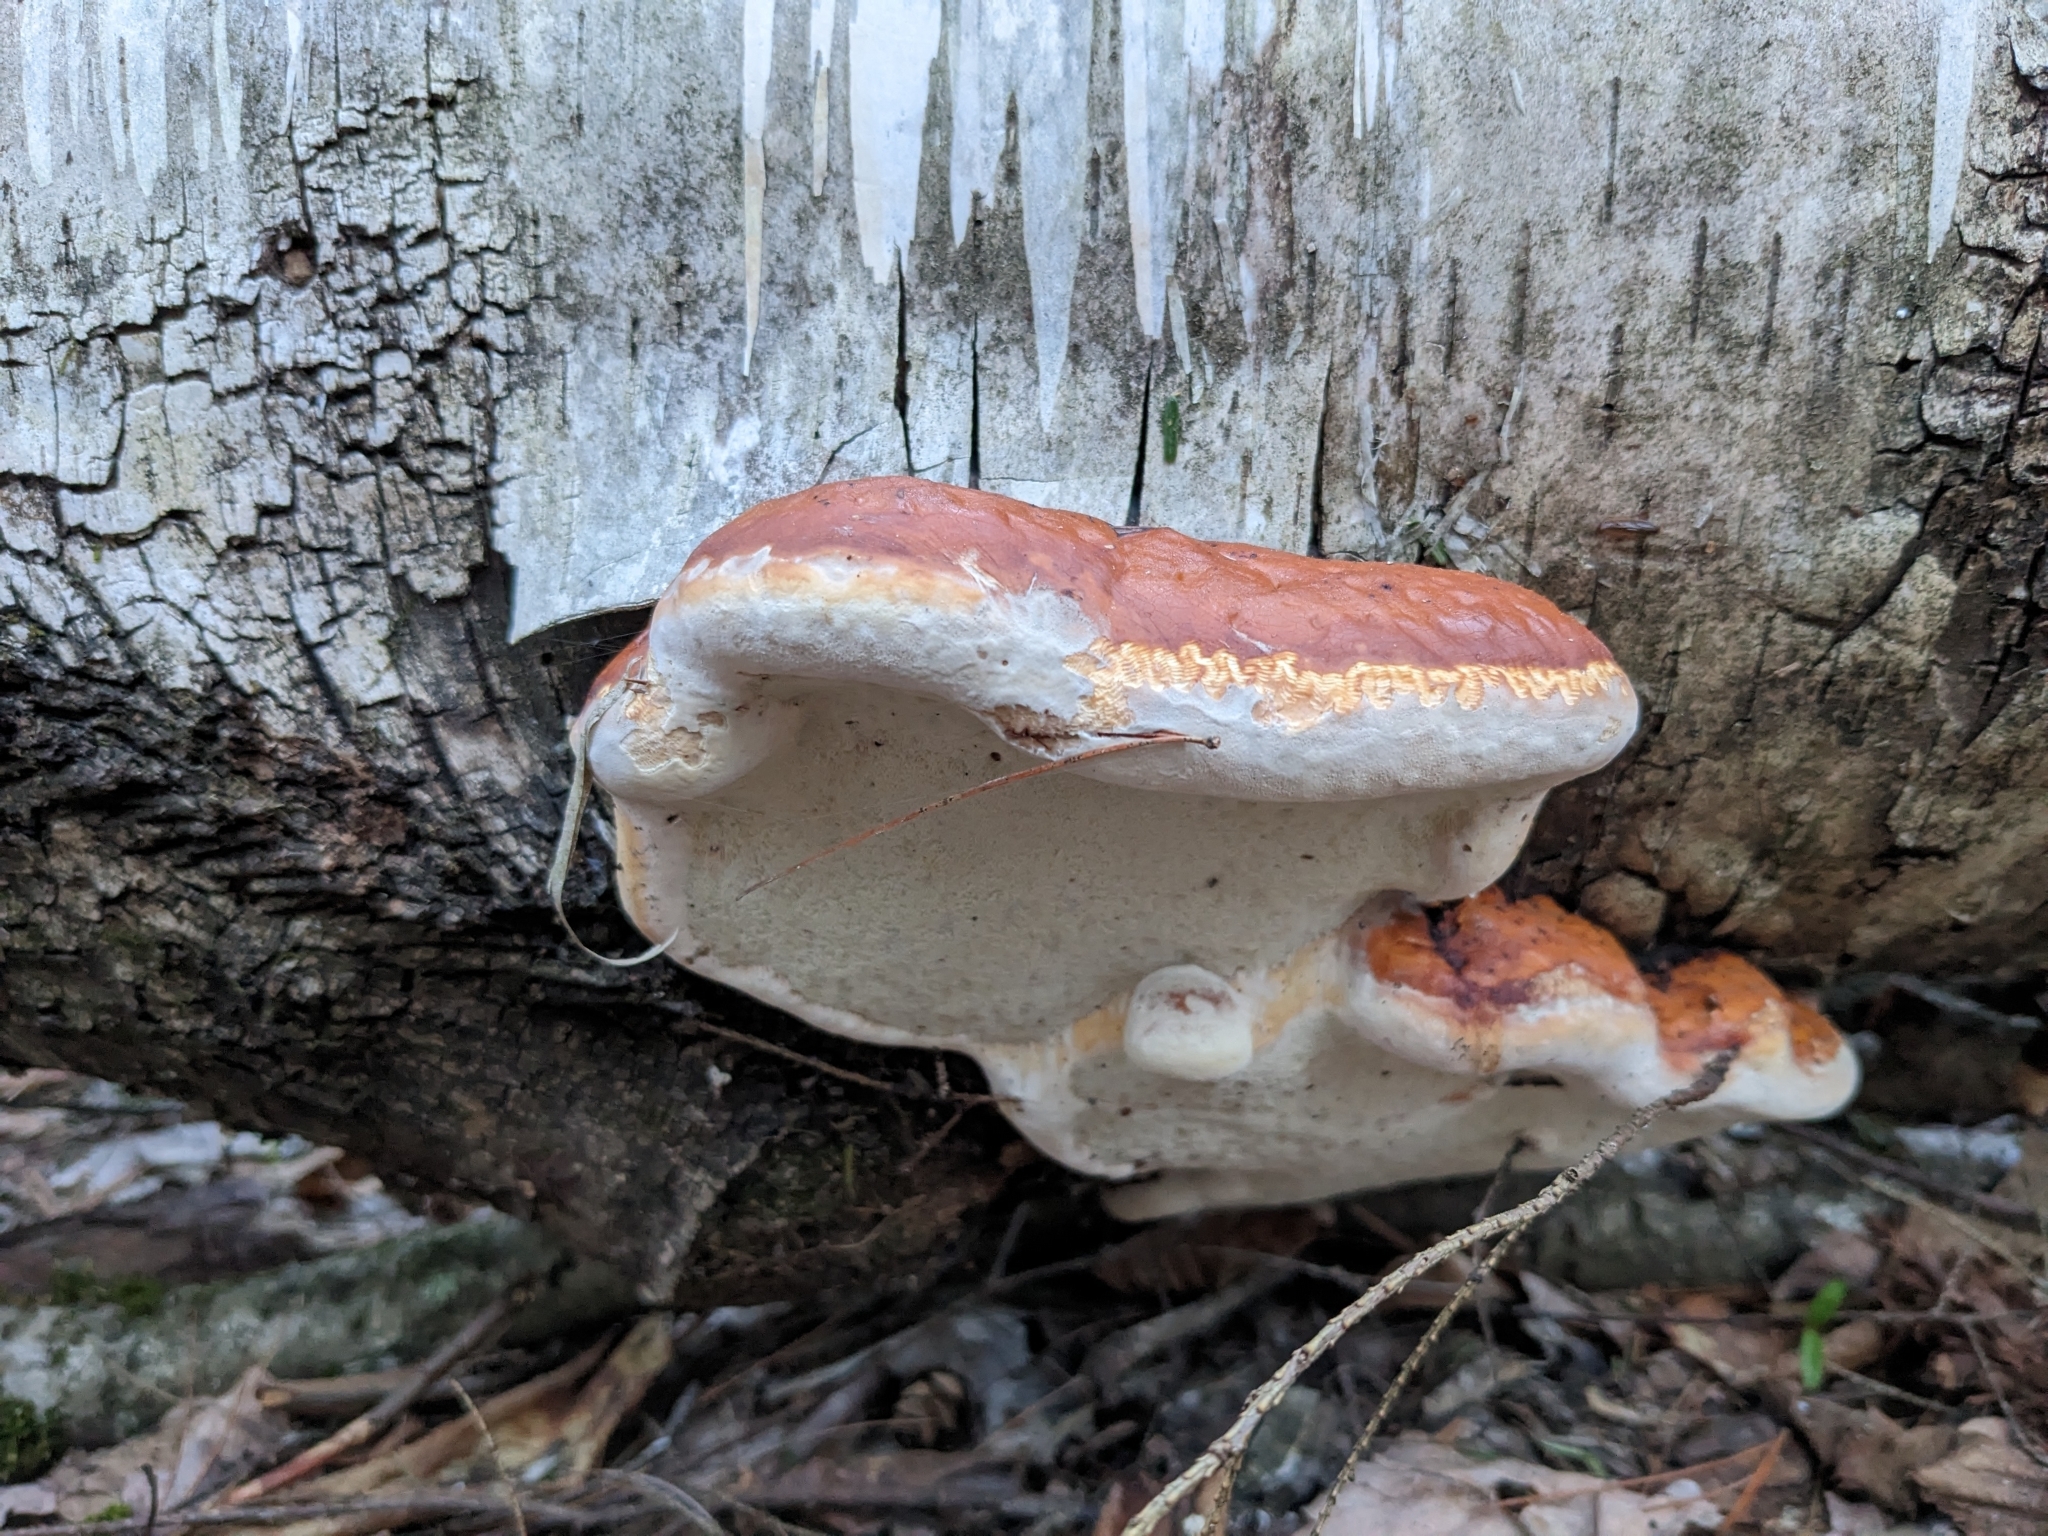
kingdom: Fungi
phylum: Basidiomycota
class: Agaricomycetes
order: Polyporales
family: Fomitopsidaceae
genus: Fomitopsis
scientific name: Fomitopsis mounceae
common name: Northern red belt
